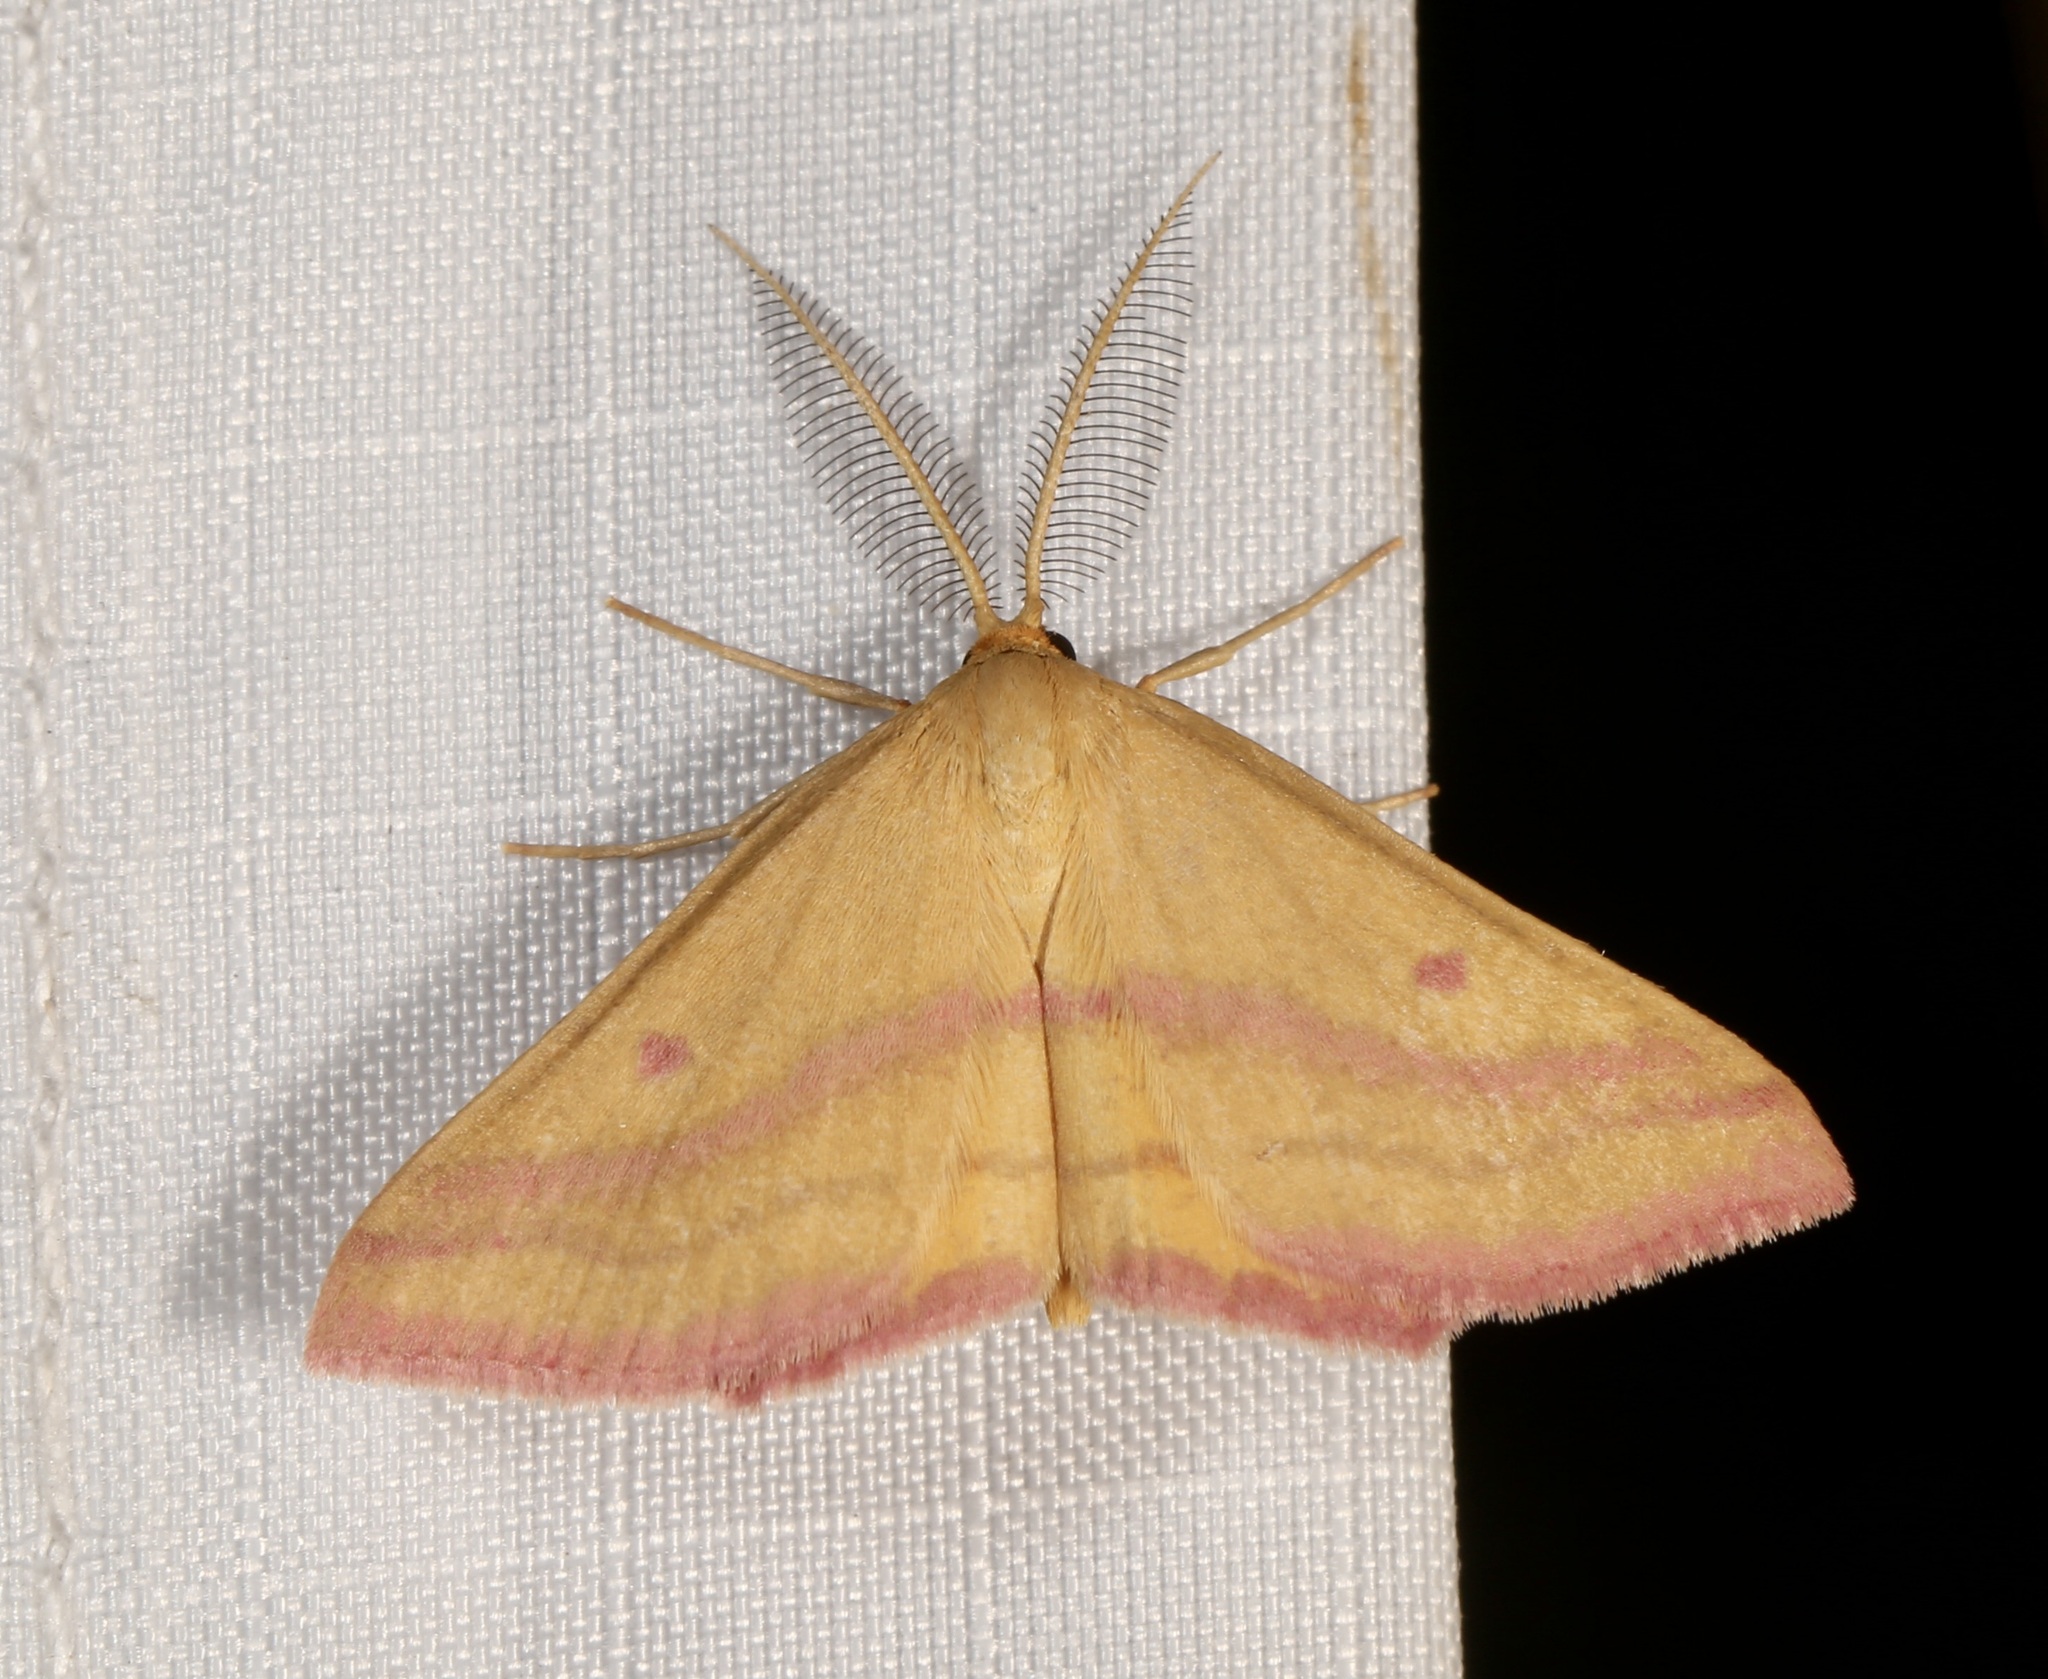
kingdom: Animalia
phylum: Arthropoda
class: Insecta
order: Lepidoptera
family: Geometridae
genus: Haematopis
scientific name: Haematopis grataria
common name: Chickweed geometer
